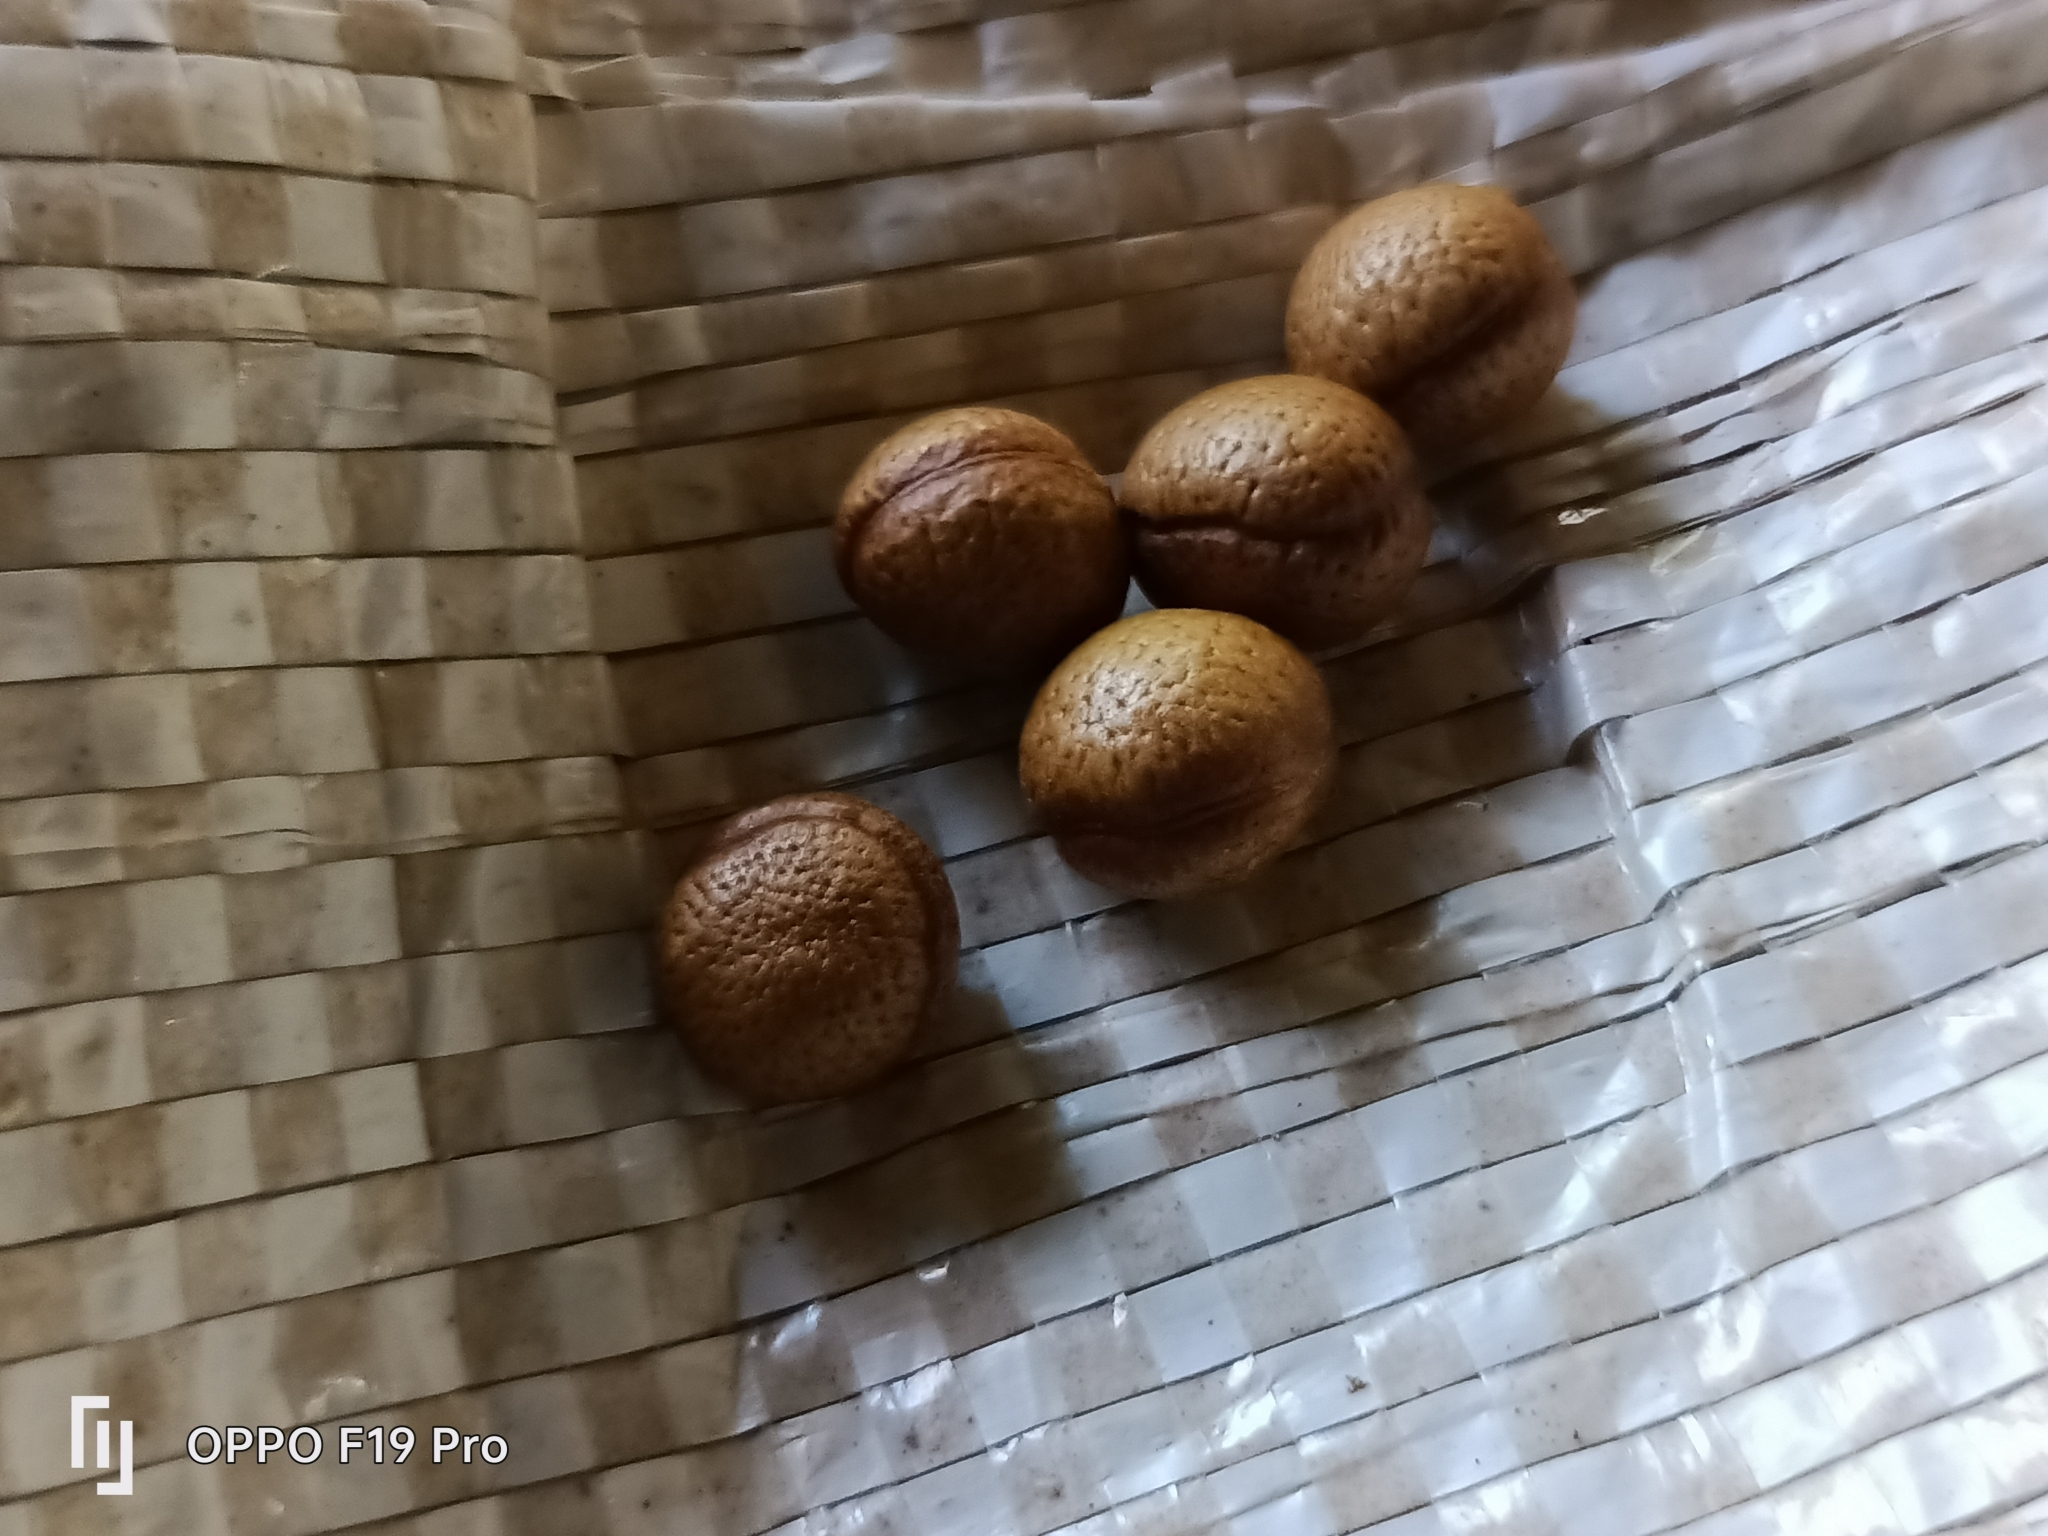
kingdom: Plantae
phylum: Tracheophyta
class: Magnoliopsida
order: Magnoliales
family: Annonaceae
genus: Orophea
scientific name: Orophea thomsonii
